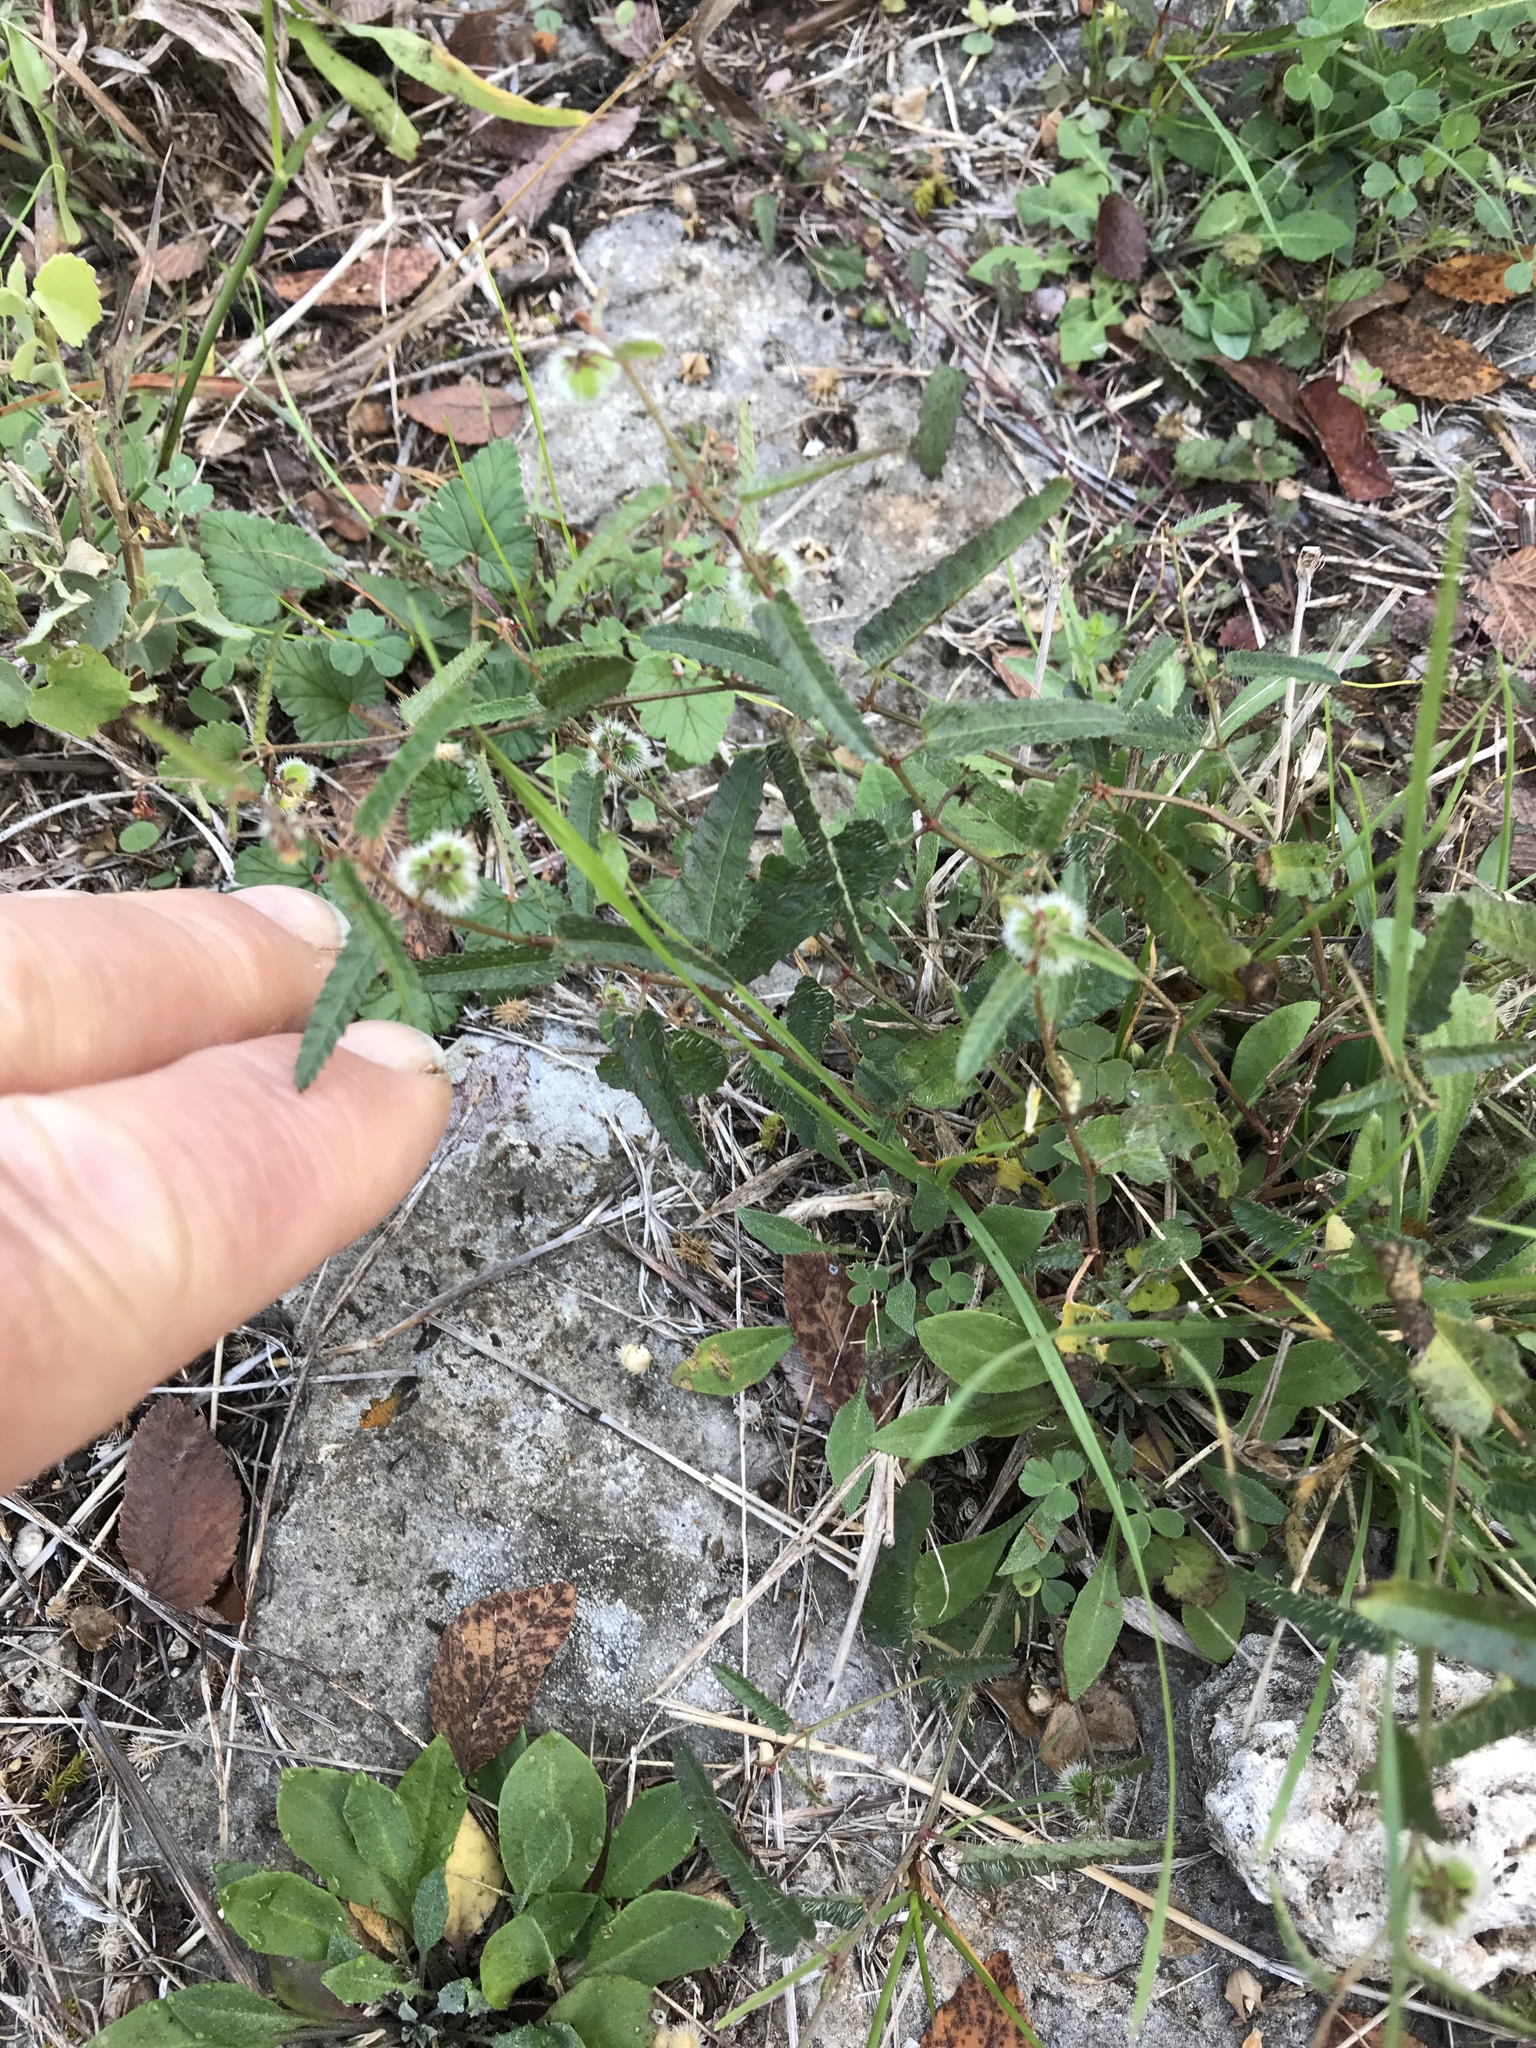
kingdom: Plantae
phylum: Tracheophyta
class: Magnoliopsida
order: Malpighiales
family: Euphorbiaceae
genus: Tragia
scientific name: Tragia ramosa
